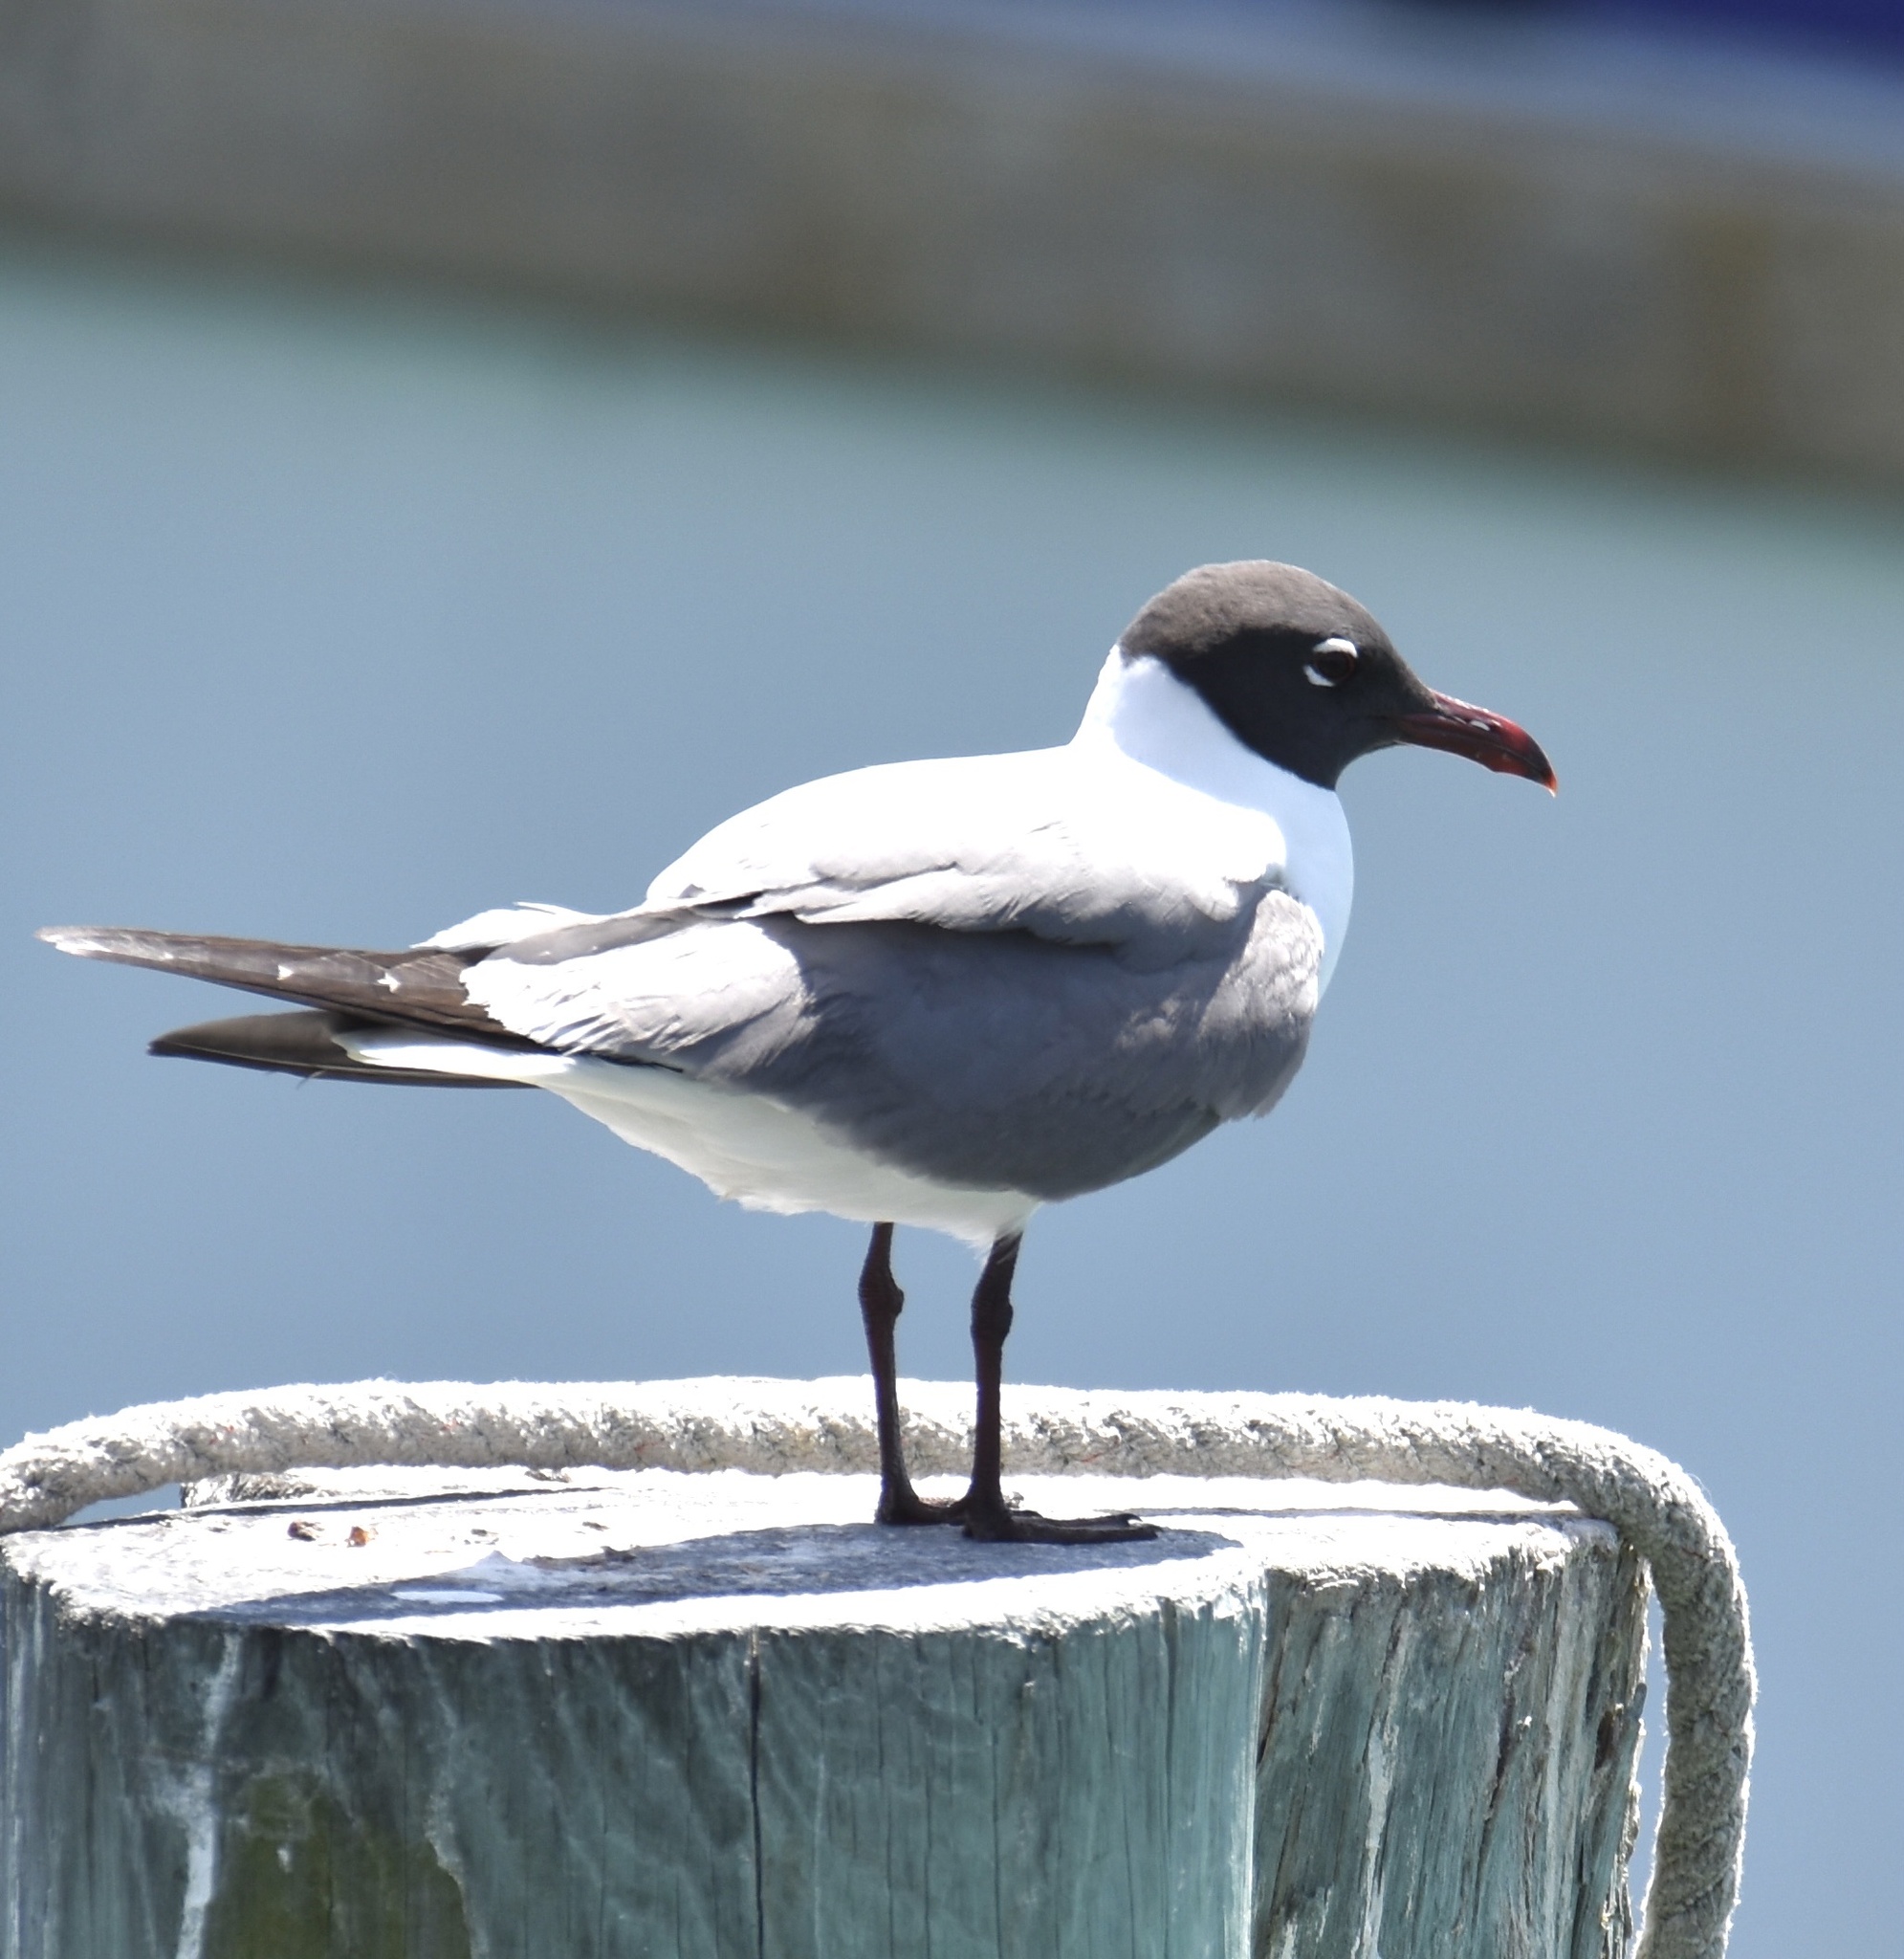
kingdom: Animalia
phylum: Chordata
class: Aves
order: Charadriiformes
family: Laridae
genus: Leucophaeus
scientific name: Leucophaeus atricilla
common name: Laughing gull
